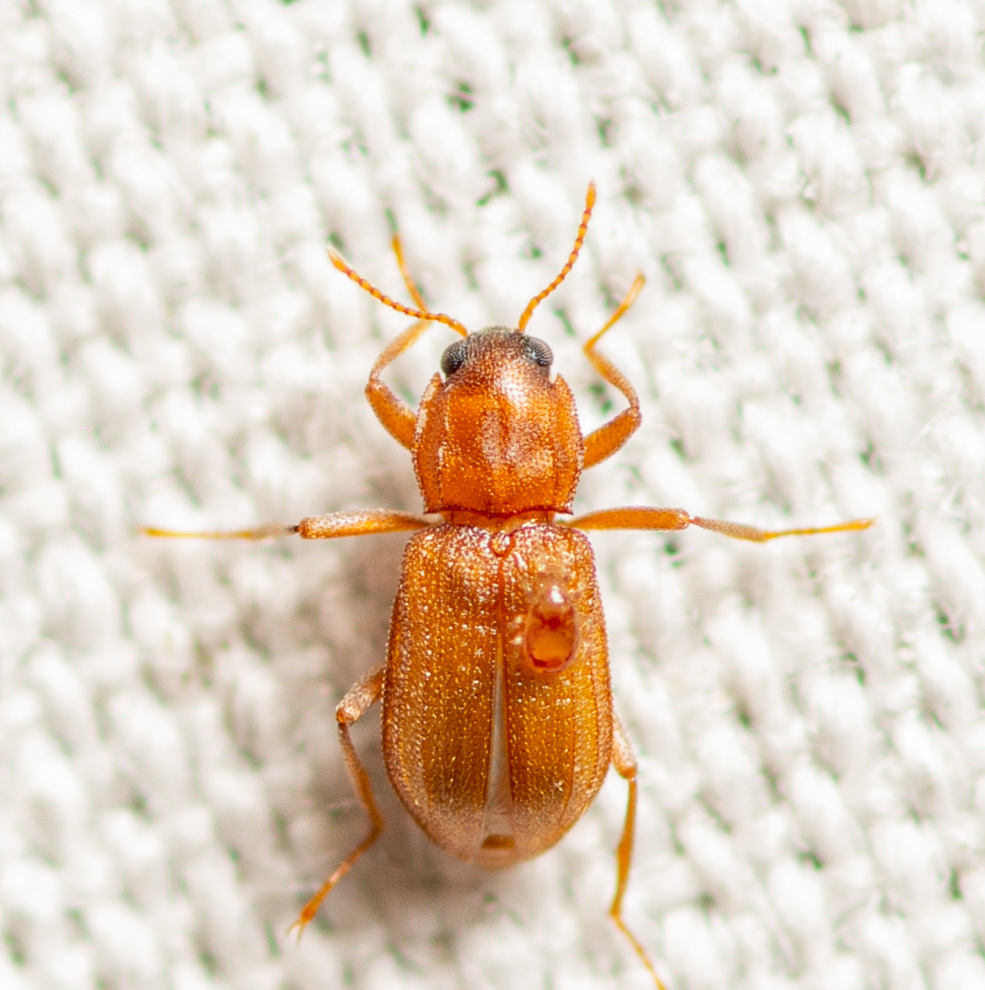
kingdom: Animalia
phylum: Arthropoda
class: Insecta
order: Coleoptera
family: Elmidae
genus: Hexacylloepus
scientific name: Hexacylloepus ferrugineus
